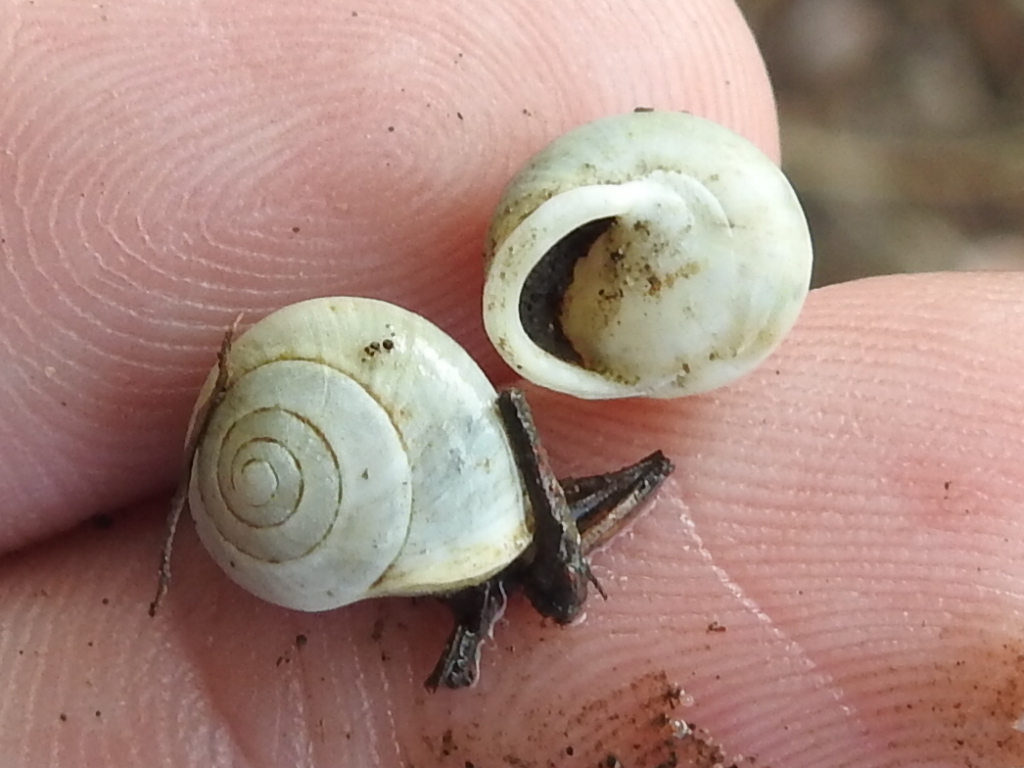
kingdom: Animalia
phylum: Mollusca
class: Gastropoda
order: Cycloneritida
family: Helicinidae
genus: Helicina
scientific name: Helicina orbiculata
